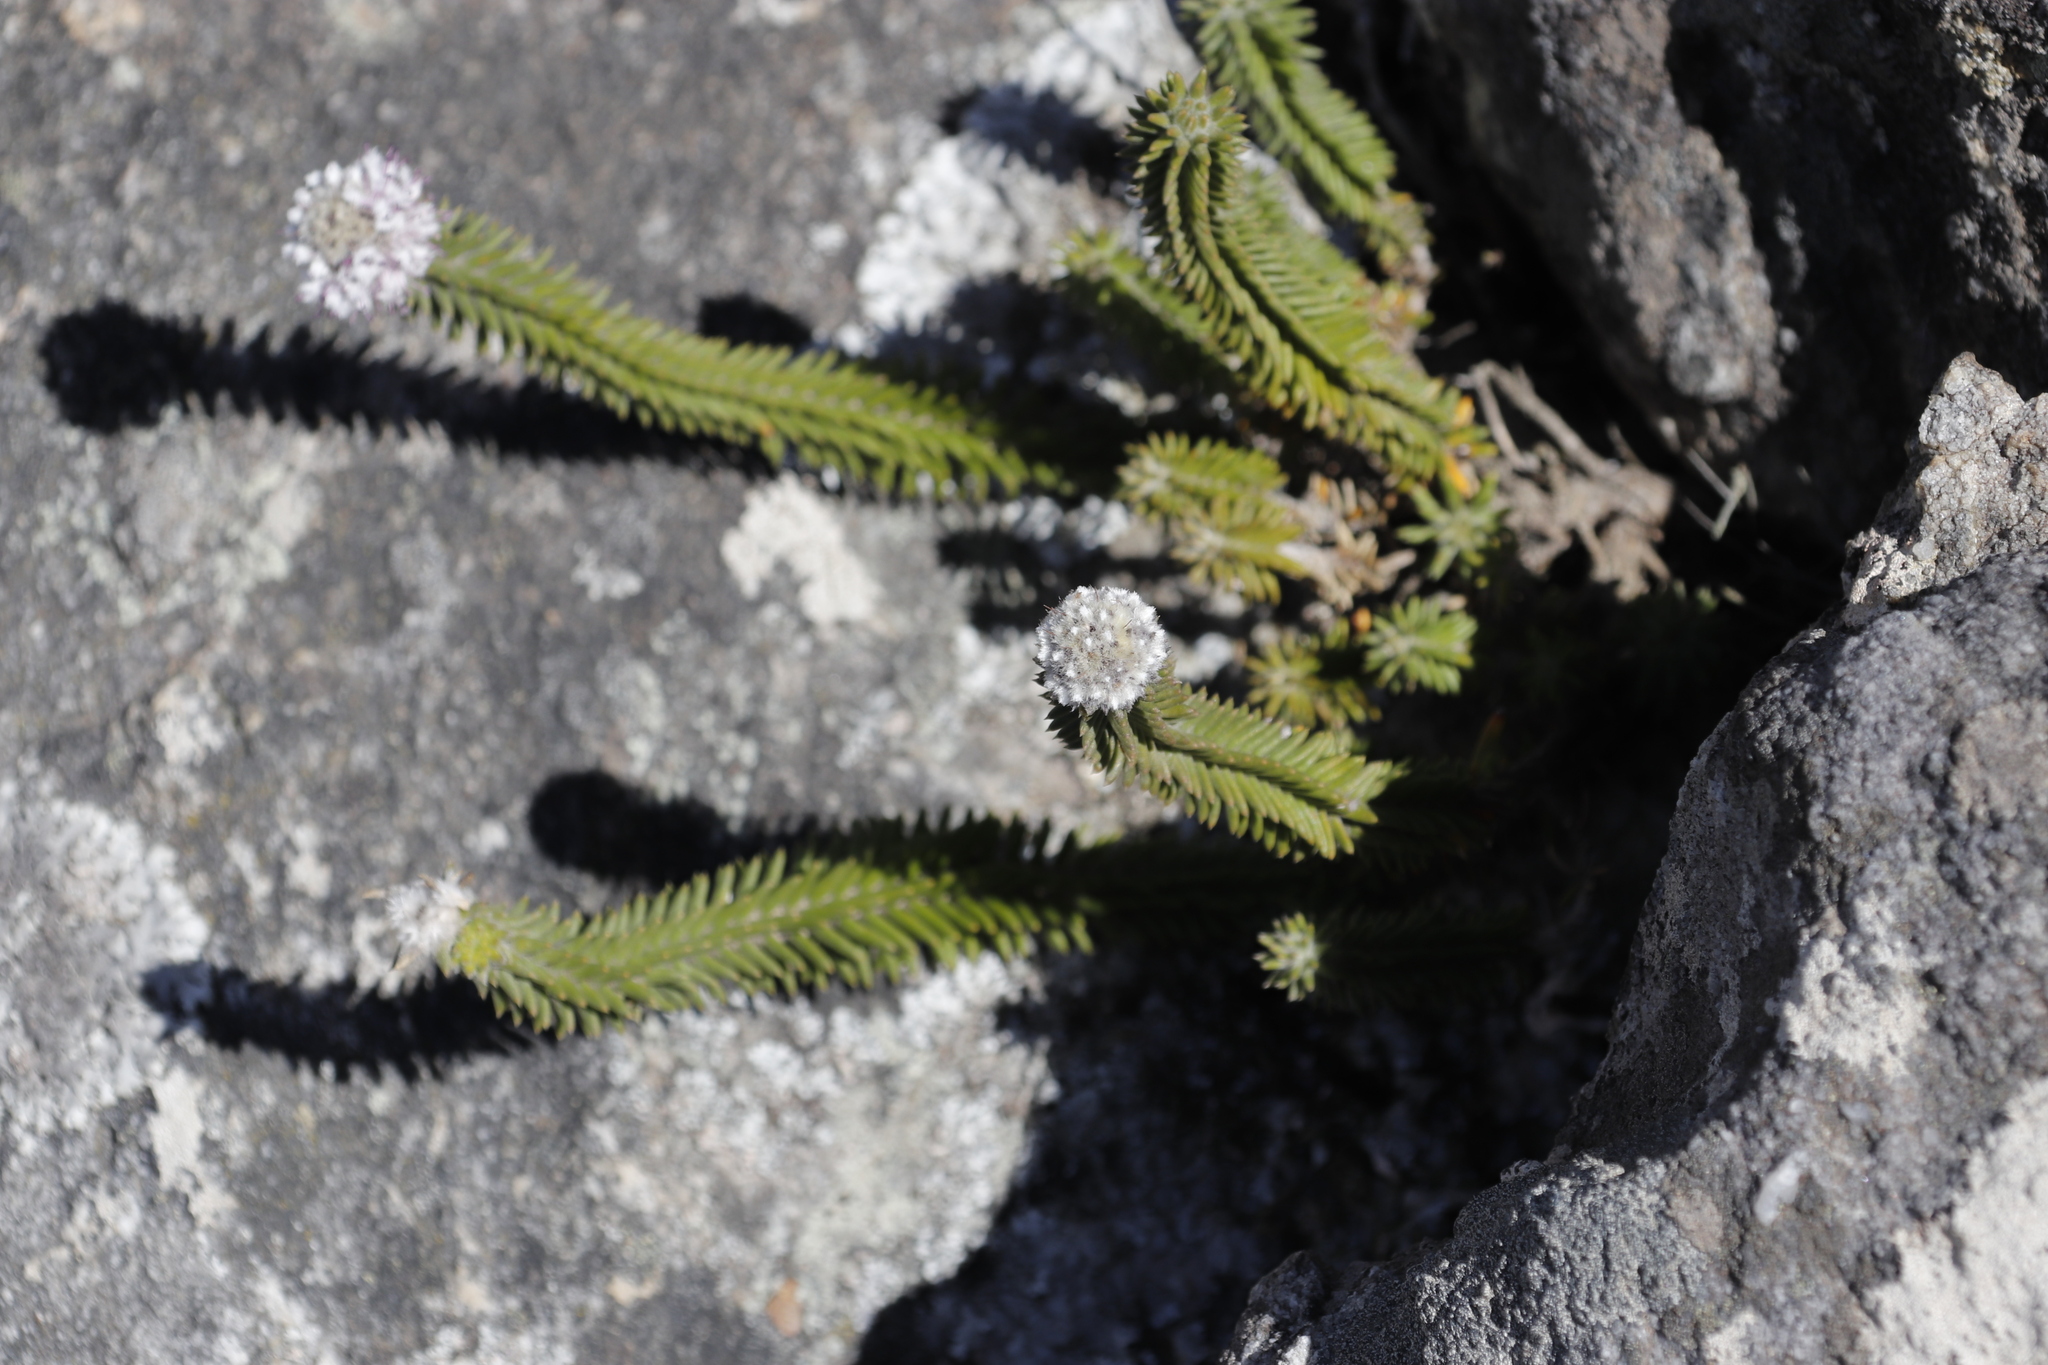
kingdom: Plantae
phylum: Tracheophyta
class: Magnoliopsida
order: Lamiales
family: Stilbaceae
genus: Kogelbergia
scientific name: Kogelbergia verticillata
